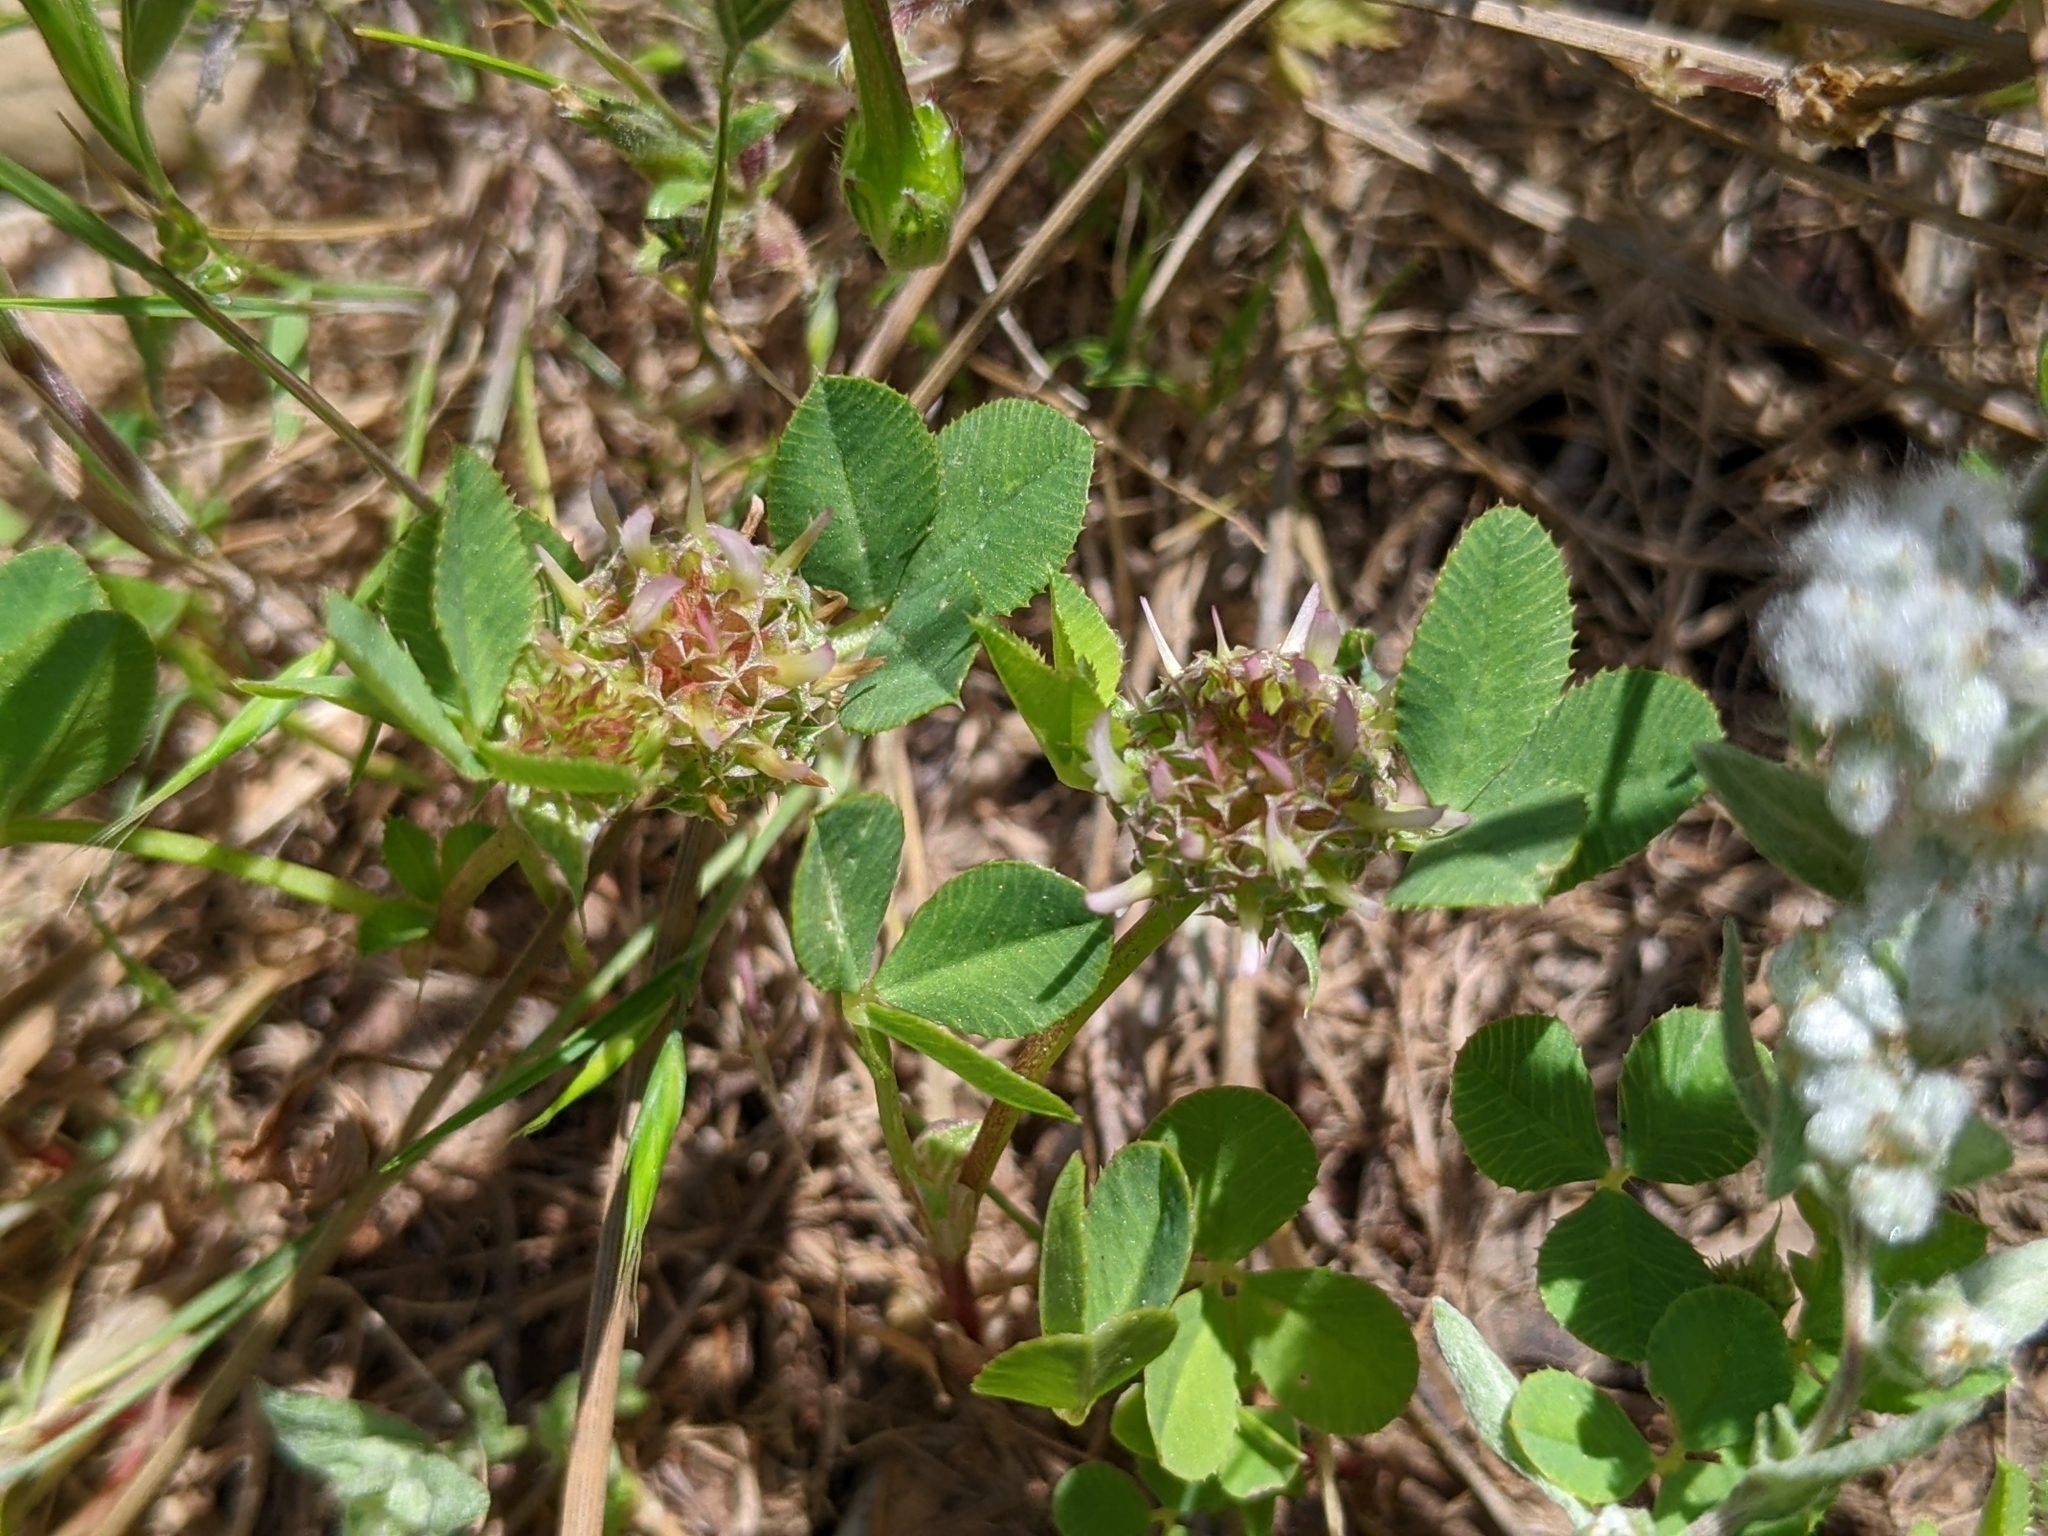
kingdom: Plantae
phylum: Tracheophyta
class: Magnoliopsida
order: Fabales
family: Fabaceae
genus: Trifolium
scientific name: Trifolium glomeratum
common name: Clustered clover
